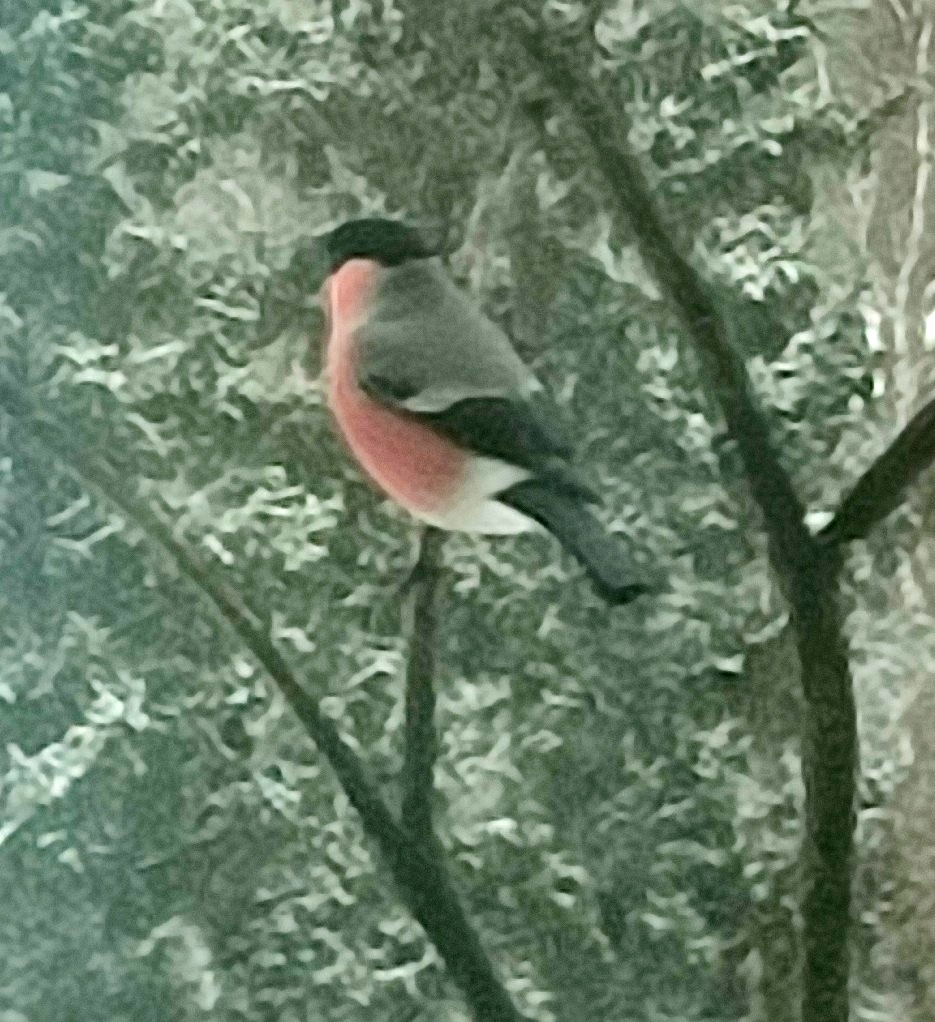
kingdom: Animalia
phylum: Chordata
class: Aves
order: Passeriformes
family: Fringillidae
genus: Pyrrhula
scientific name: Pyrrhula pyrrhula
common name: Eurasian bullfinch
